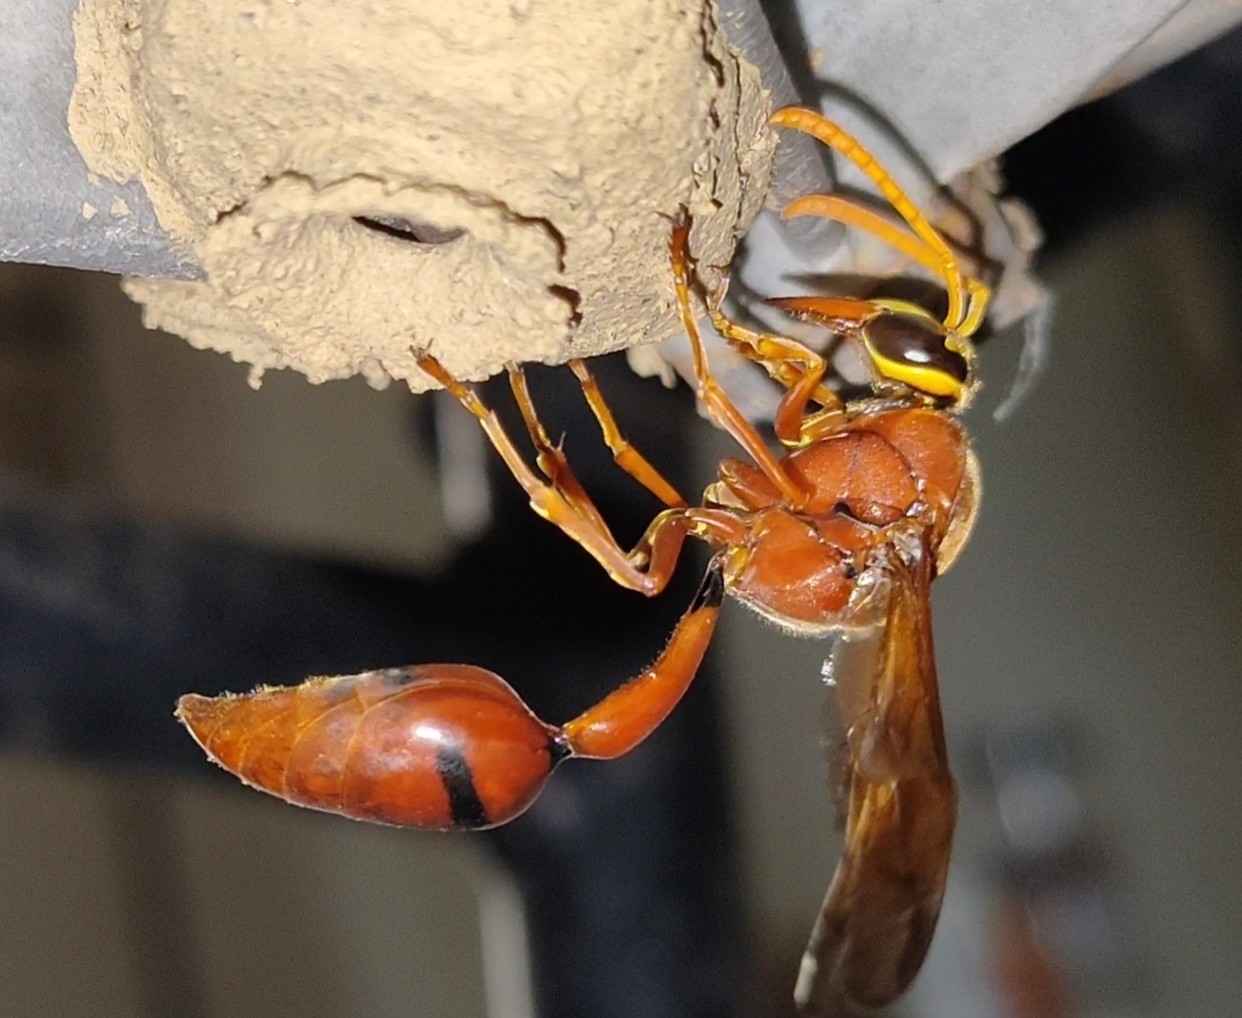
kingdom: Animalia
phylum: Arthropoda
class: Insecta
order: Hymenoptera
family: Eumenidae
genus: Delta
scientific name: Delta conoideum
